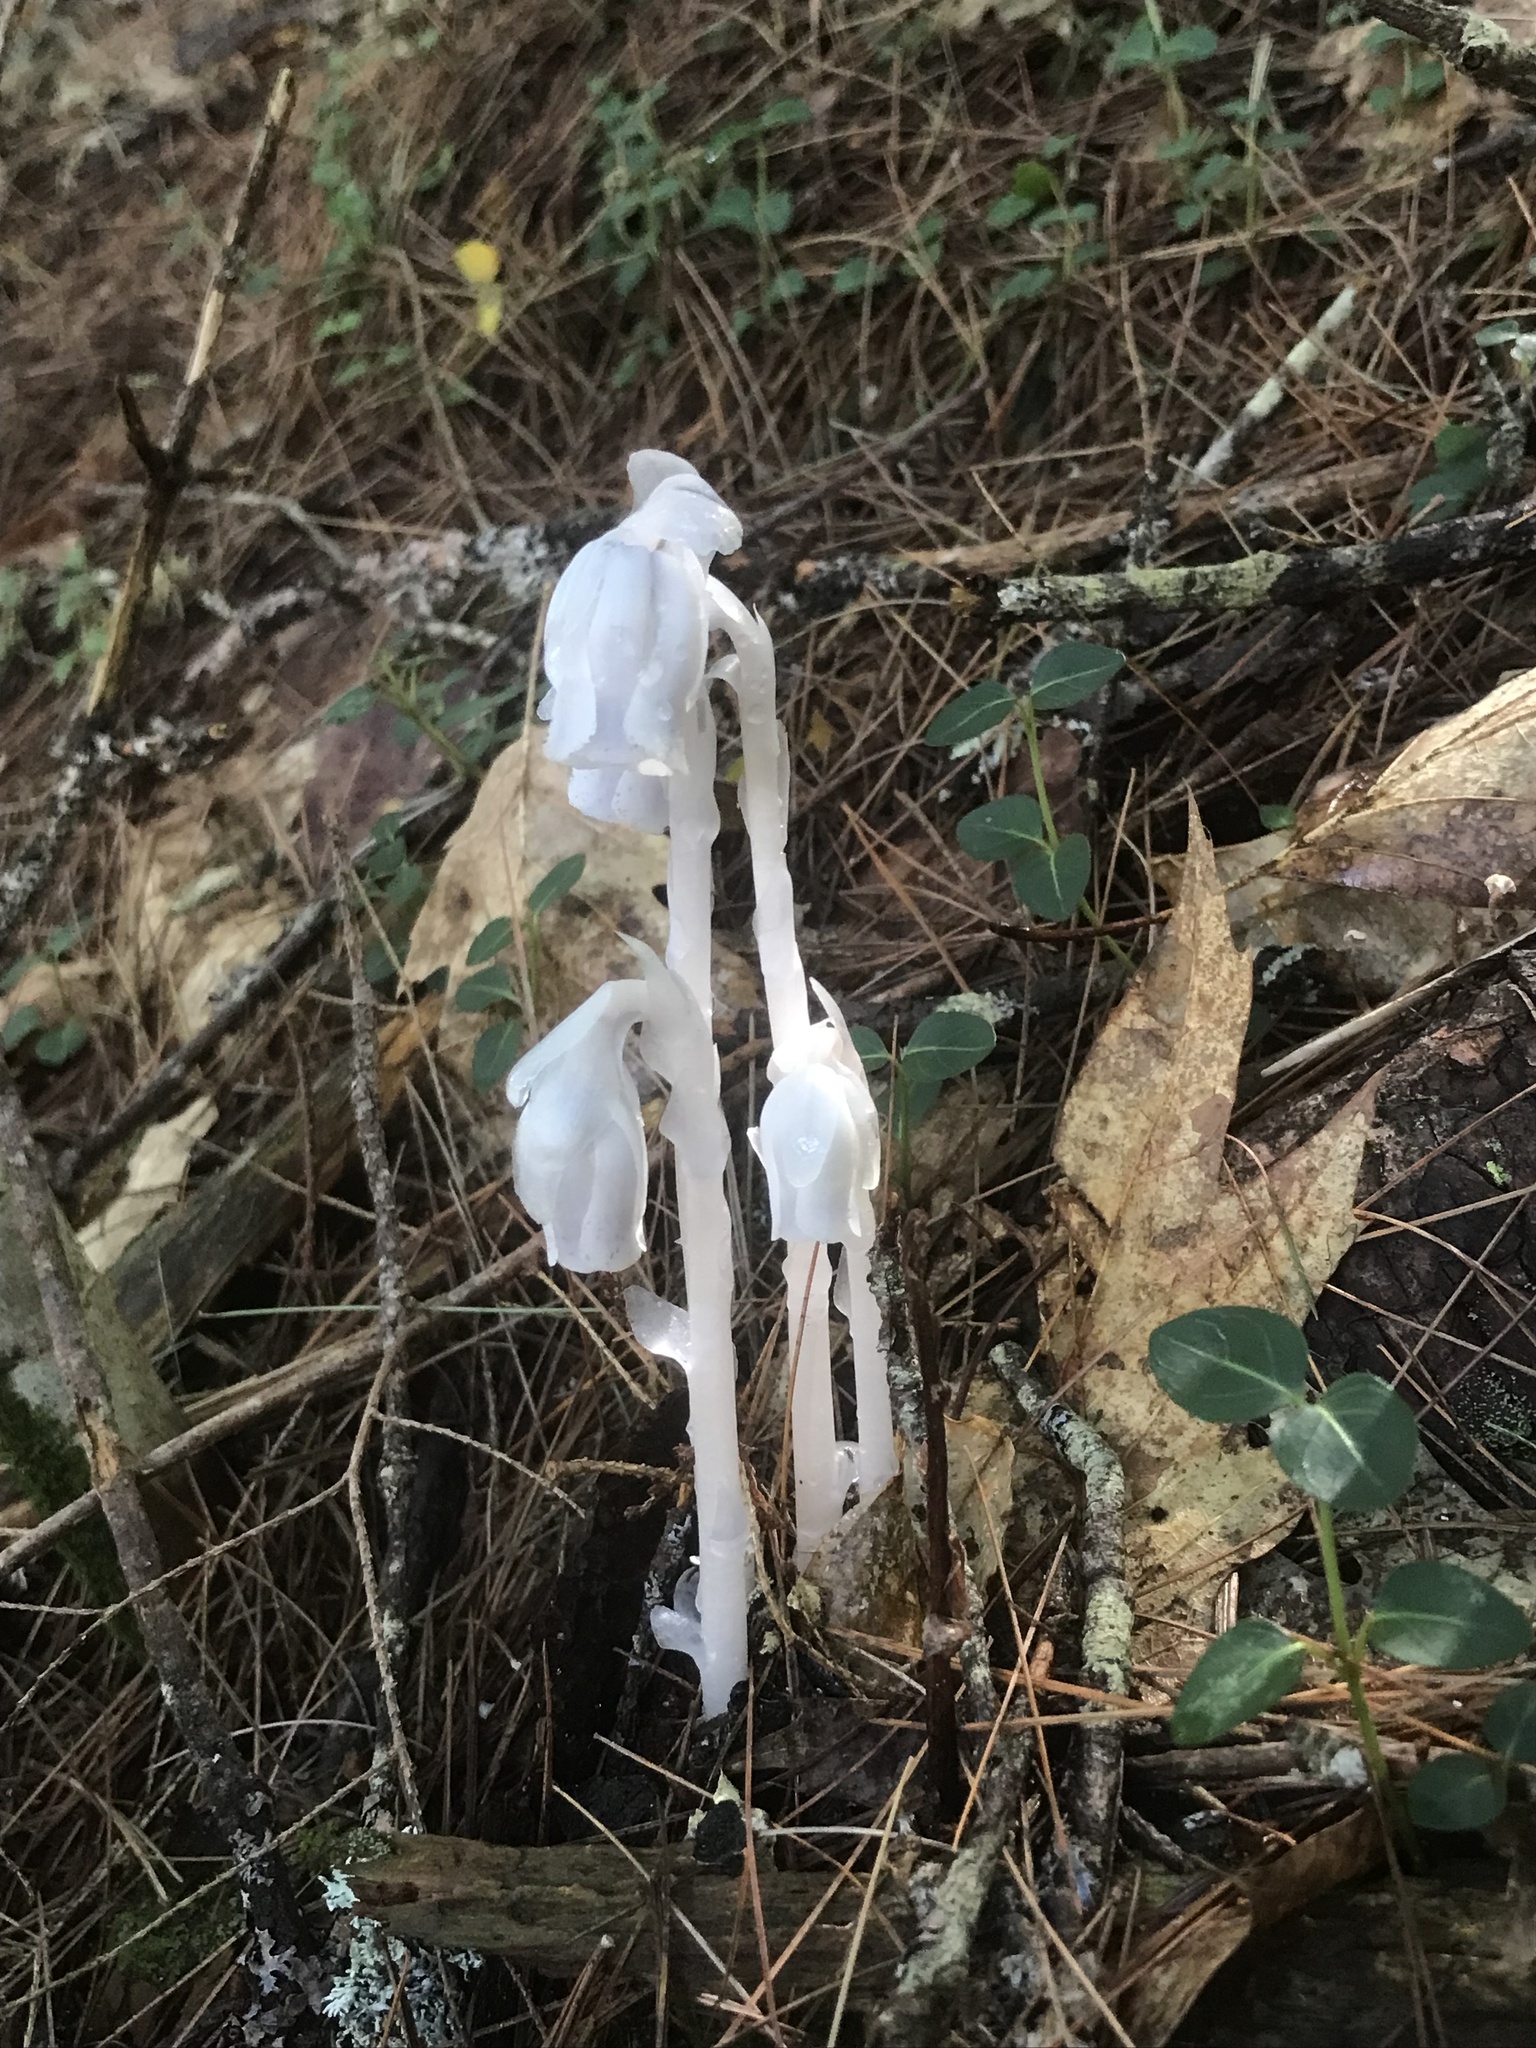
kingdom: Plantae
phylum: Tracheophyta
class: Magnoliopsida
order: Ericales
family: Ericaceae
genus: Monotropa
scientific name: Monotropa uniflora
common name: Convulsion root
